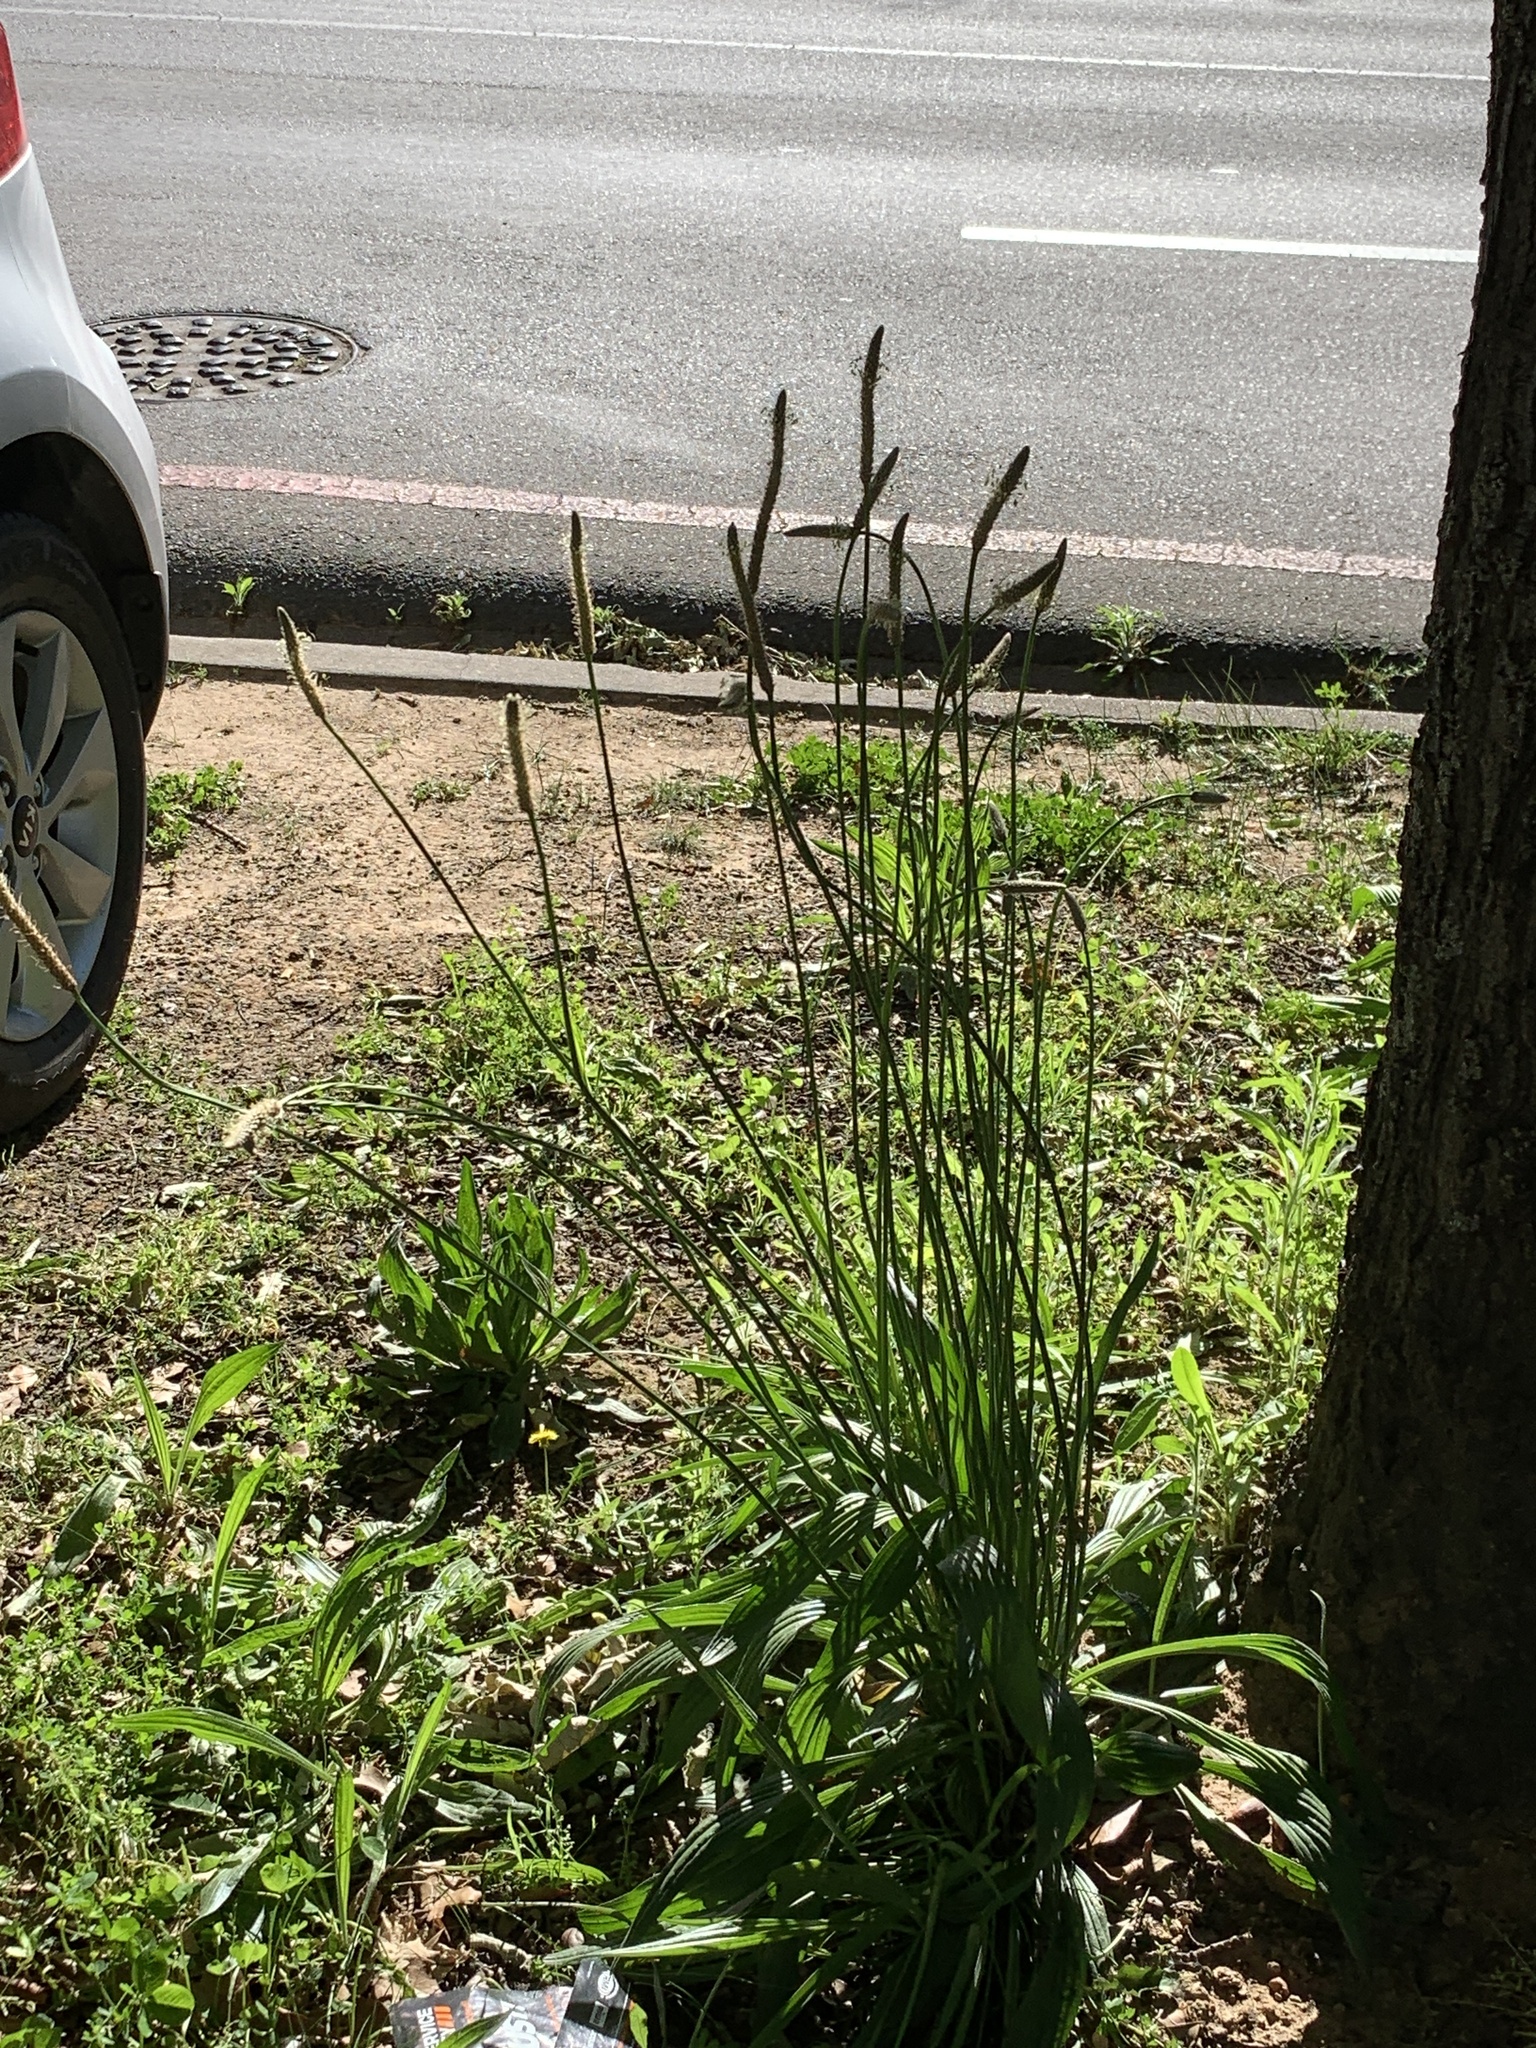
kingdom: Plantae
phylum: Tracheophyta
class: Magnoliopsida
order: Lamiales
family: Plantaginaceae
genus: Plantago
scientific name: Plantago lanceolata
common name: Ribwort plantain
